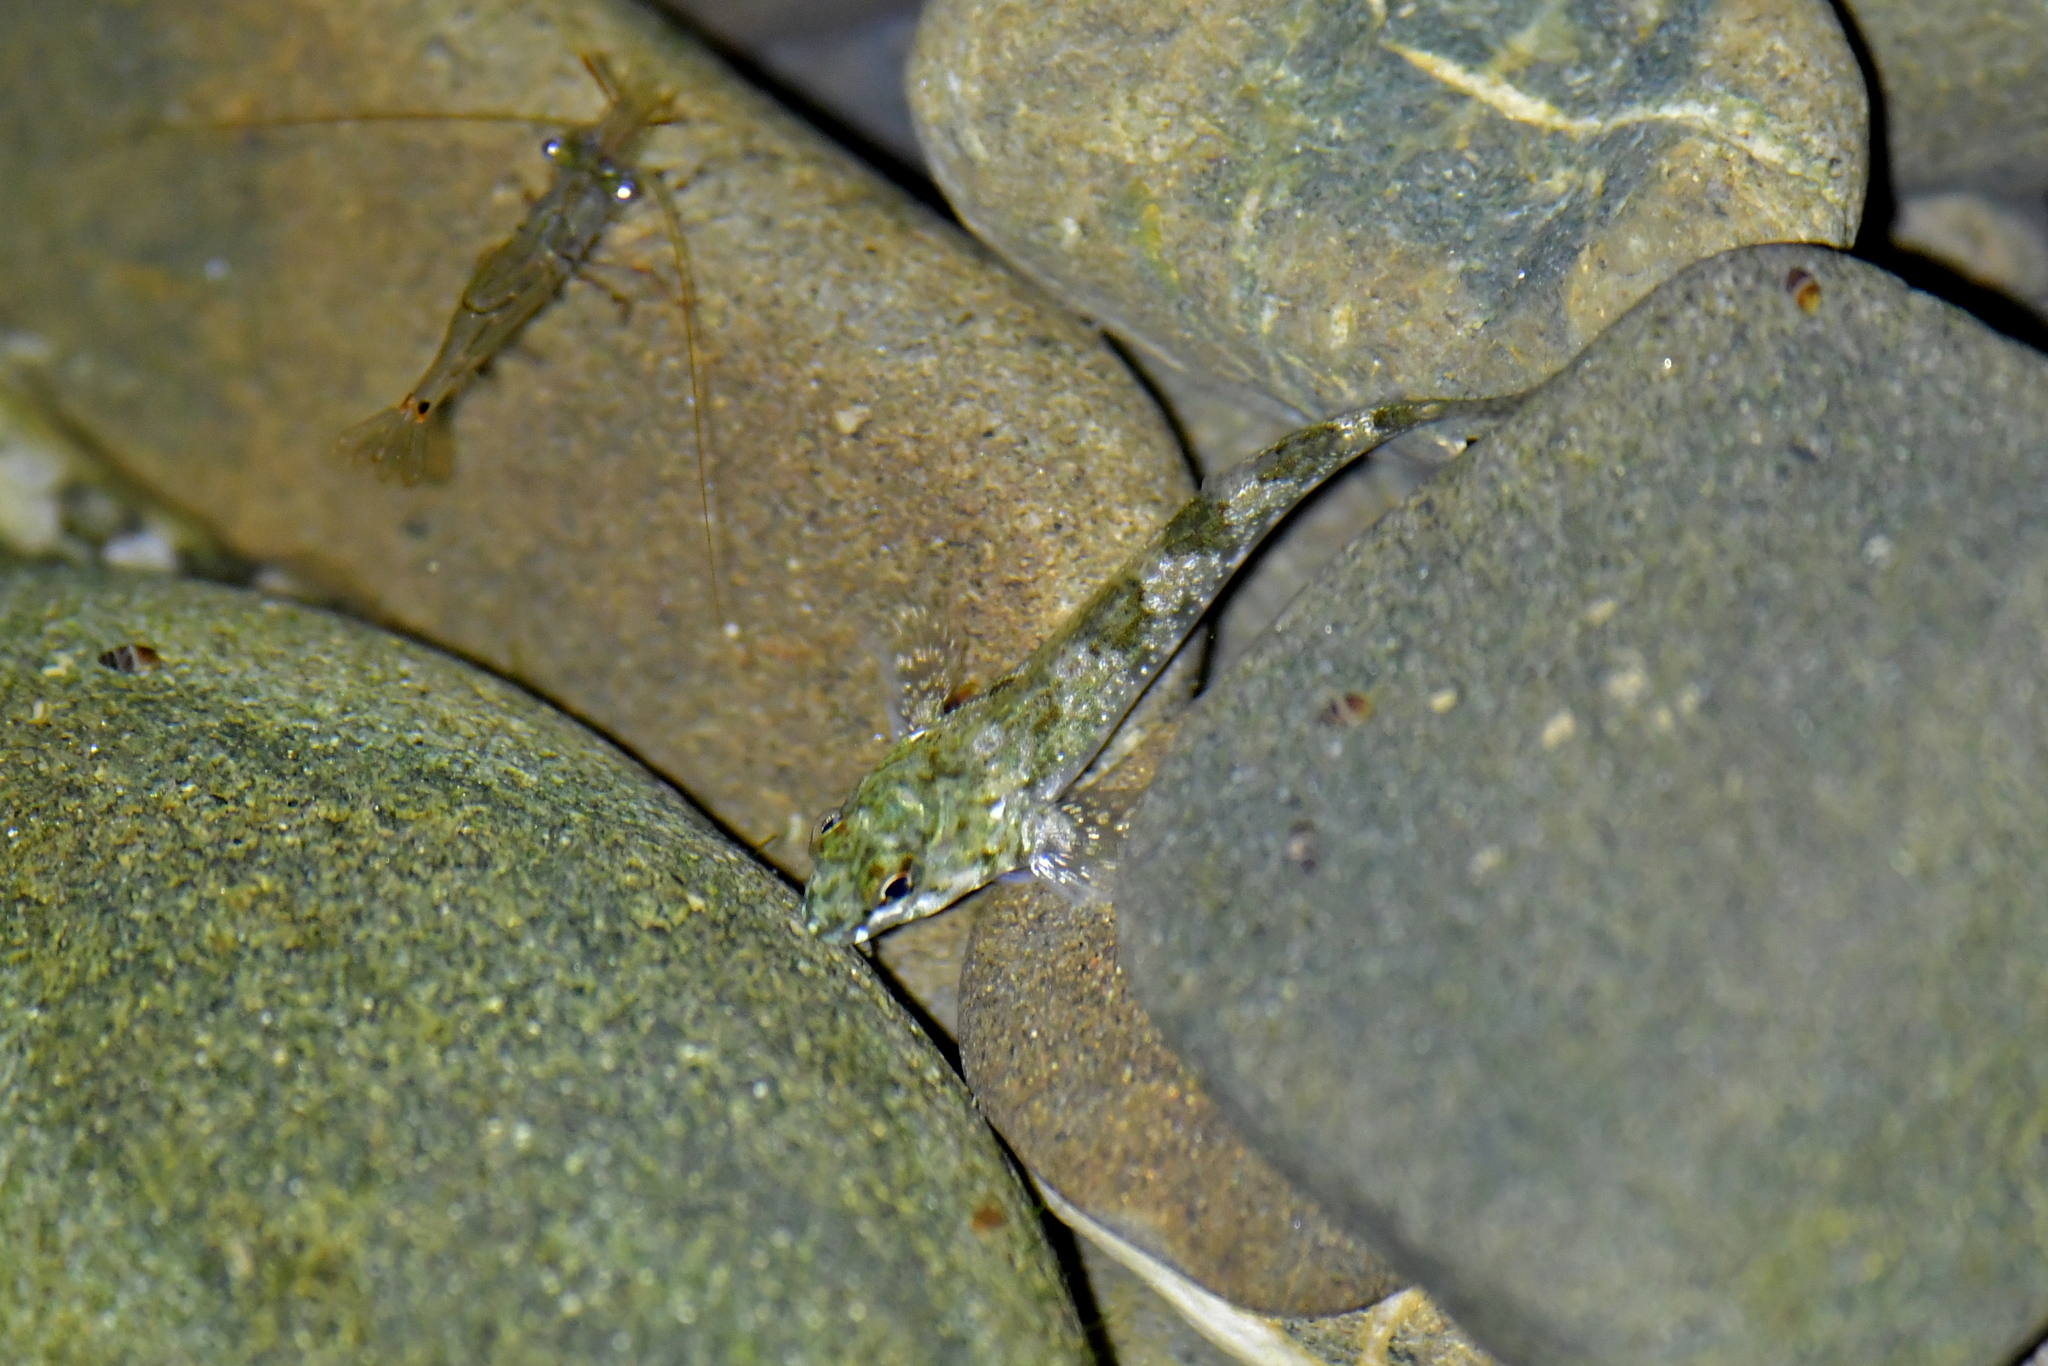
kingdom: Animalia
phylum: Chordata
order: Perciformes
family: Tripterygiidae
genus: Bellapiscis
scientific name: Bellapiscis medius
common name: Twister
